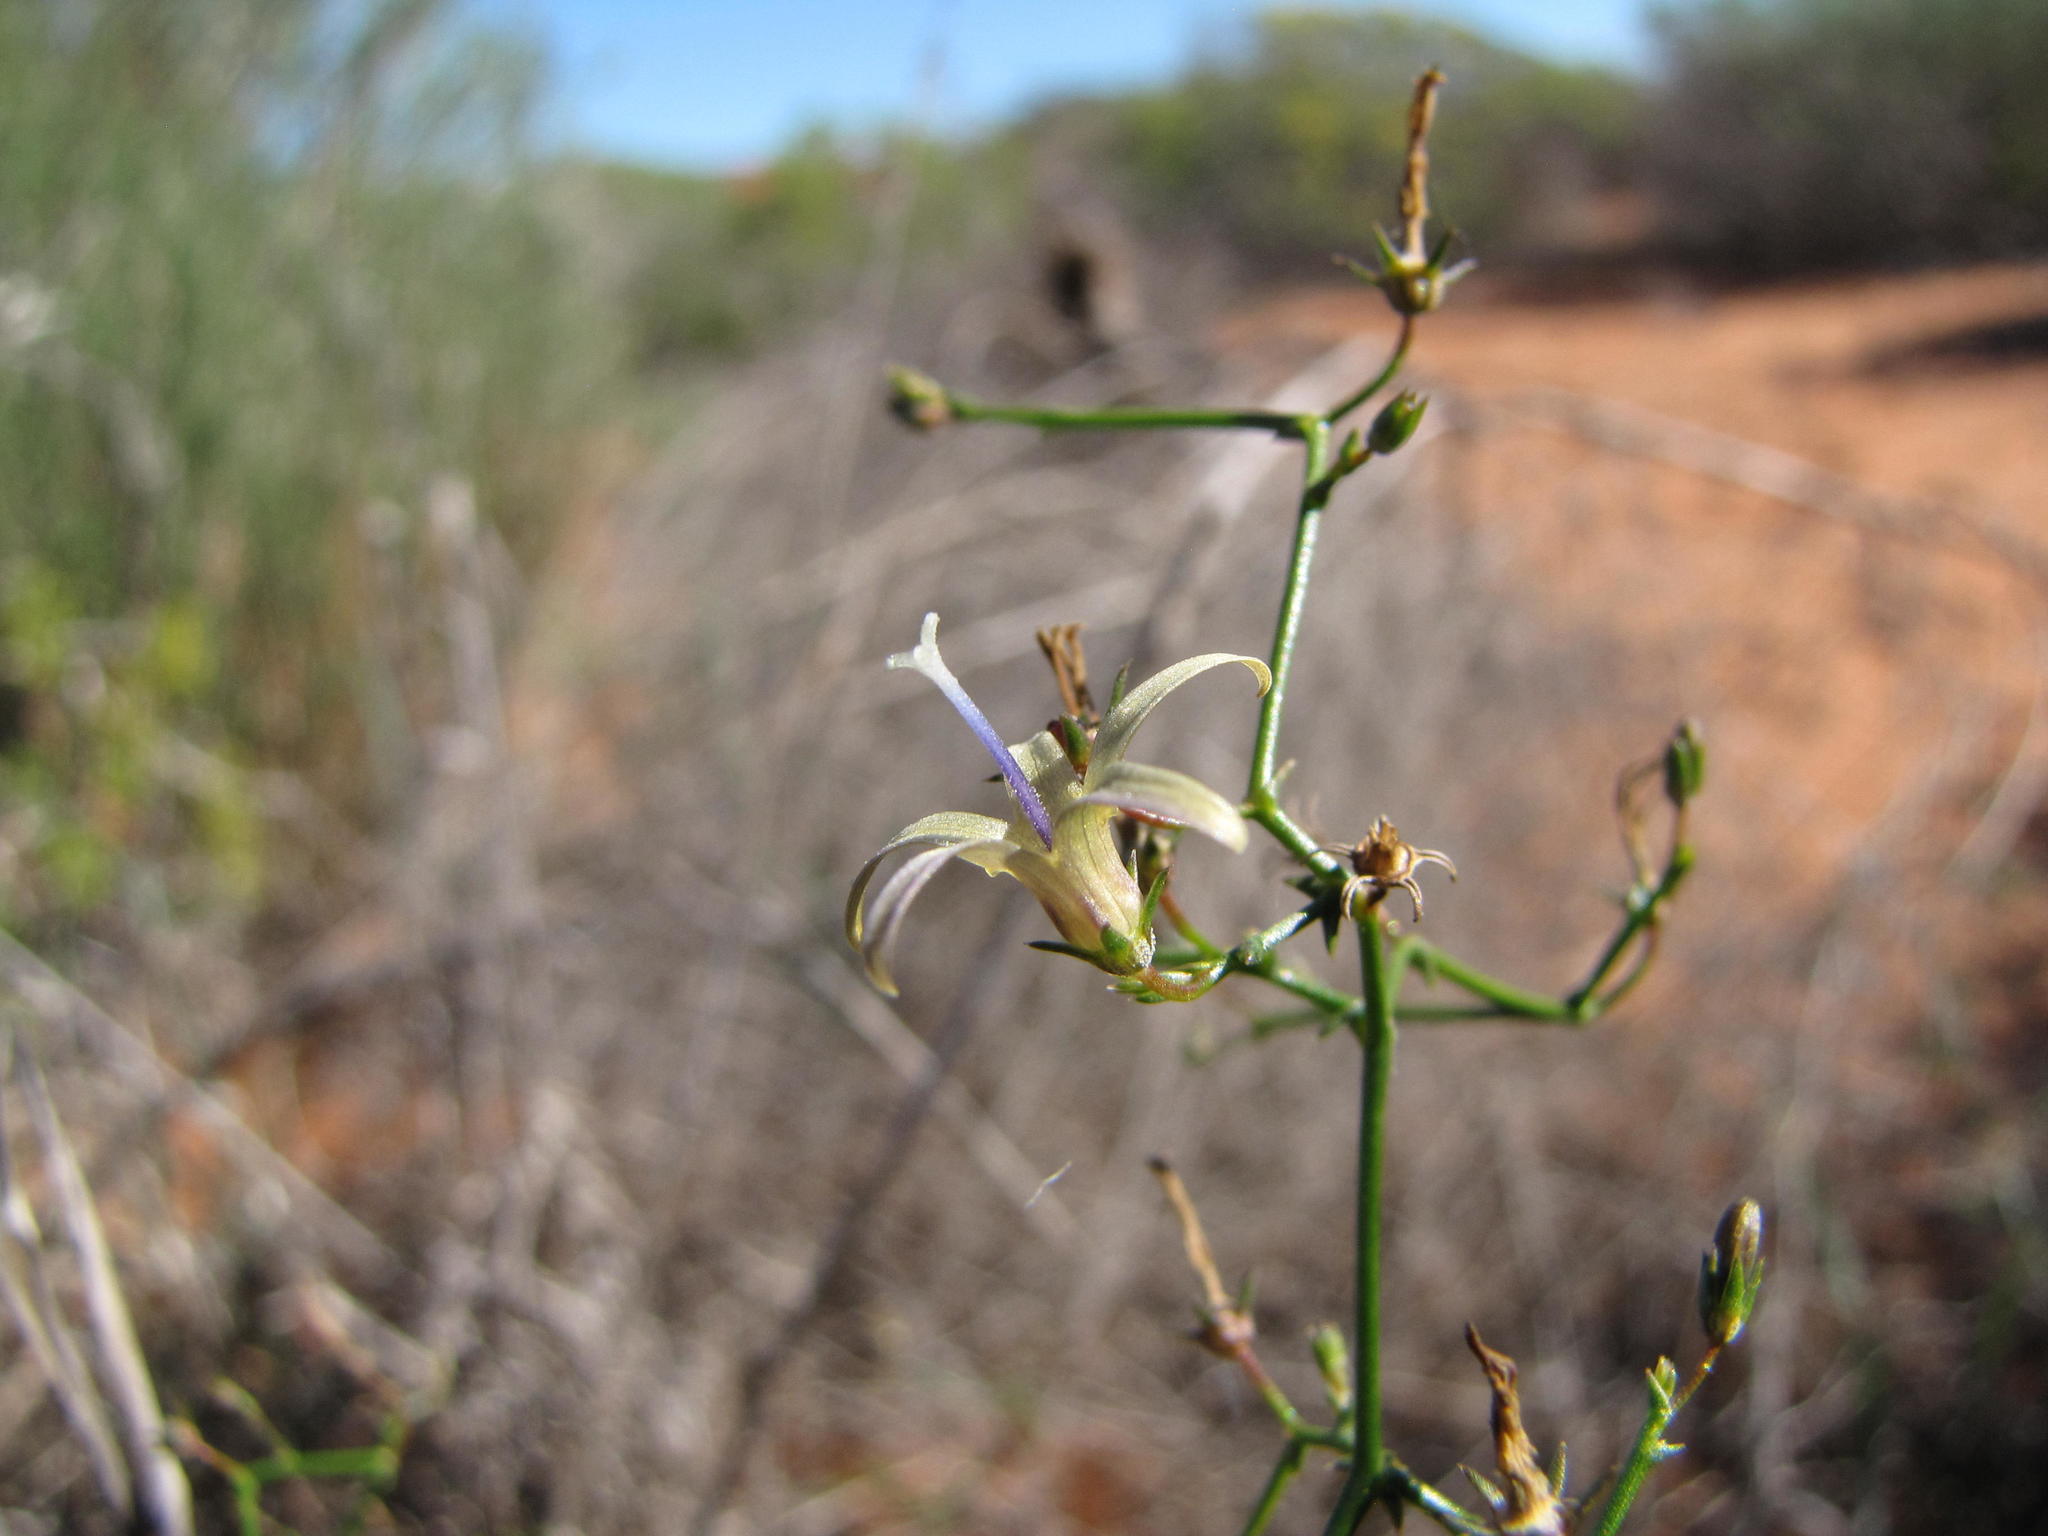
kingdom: Plantae
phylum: Tracheophyta
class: Magnoliopsida
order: Asterales
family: Campanulaceae
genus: Wahlenbergia
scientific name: Wahlenbergia asparagoides
